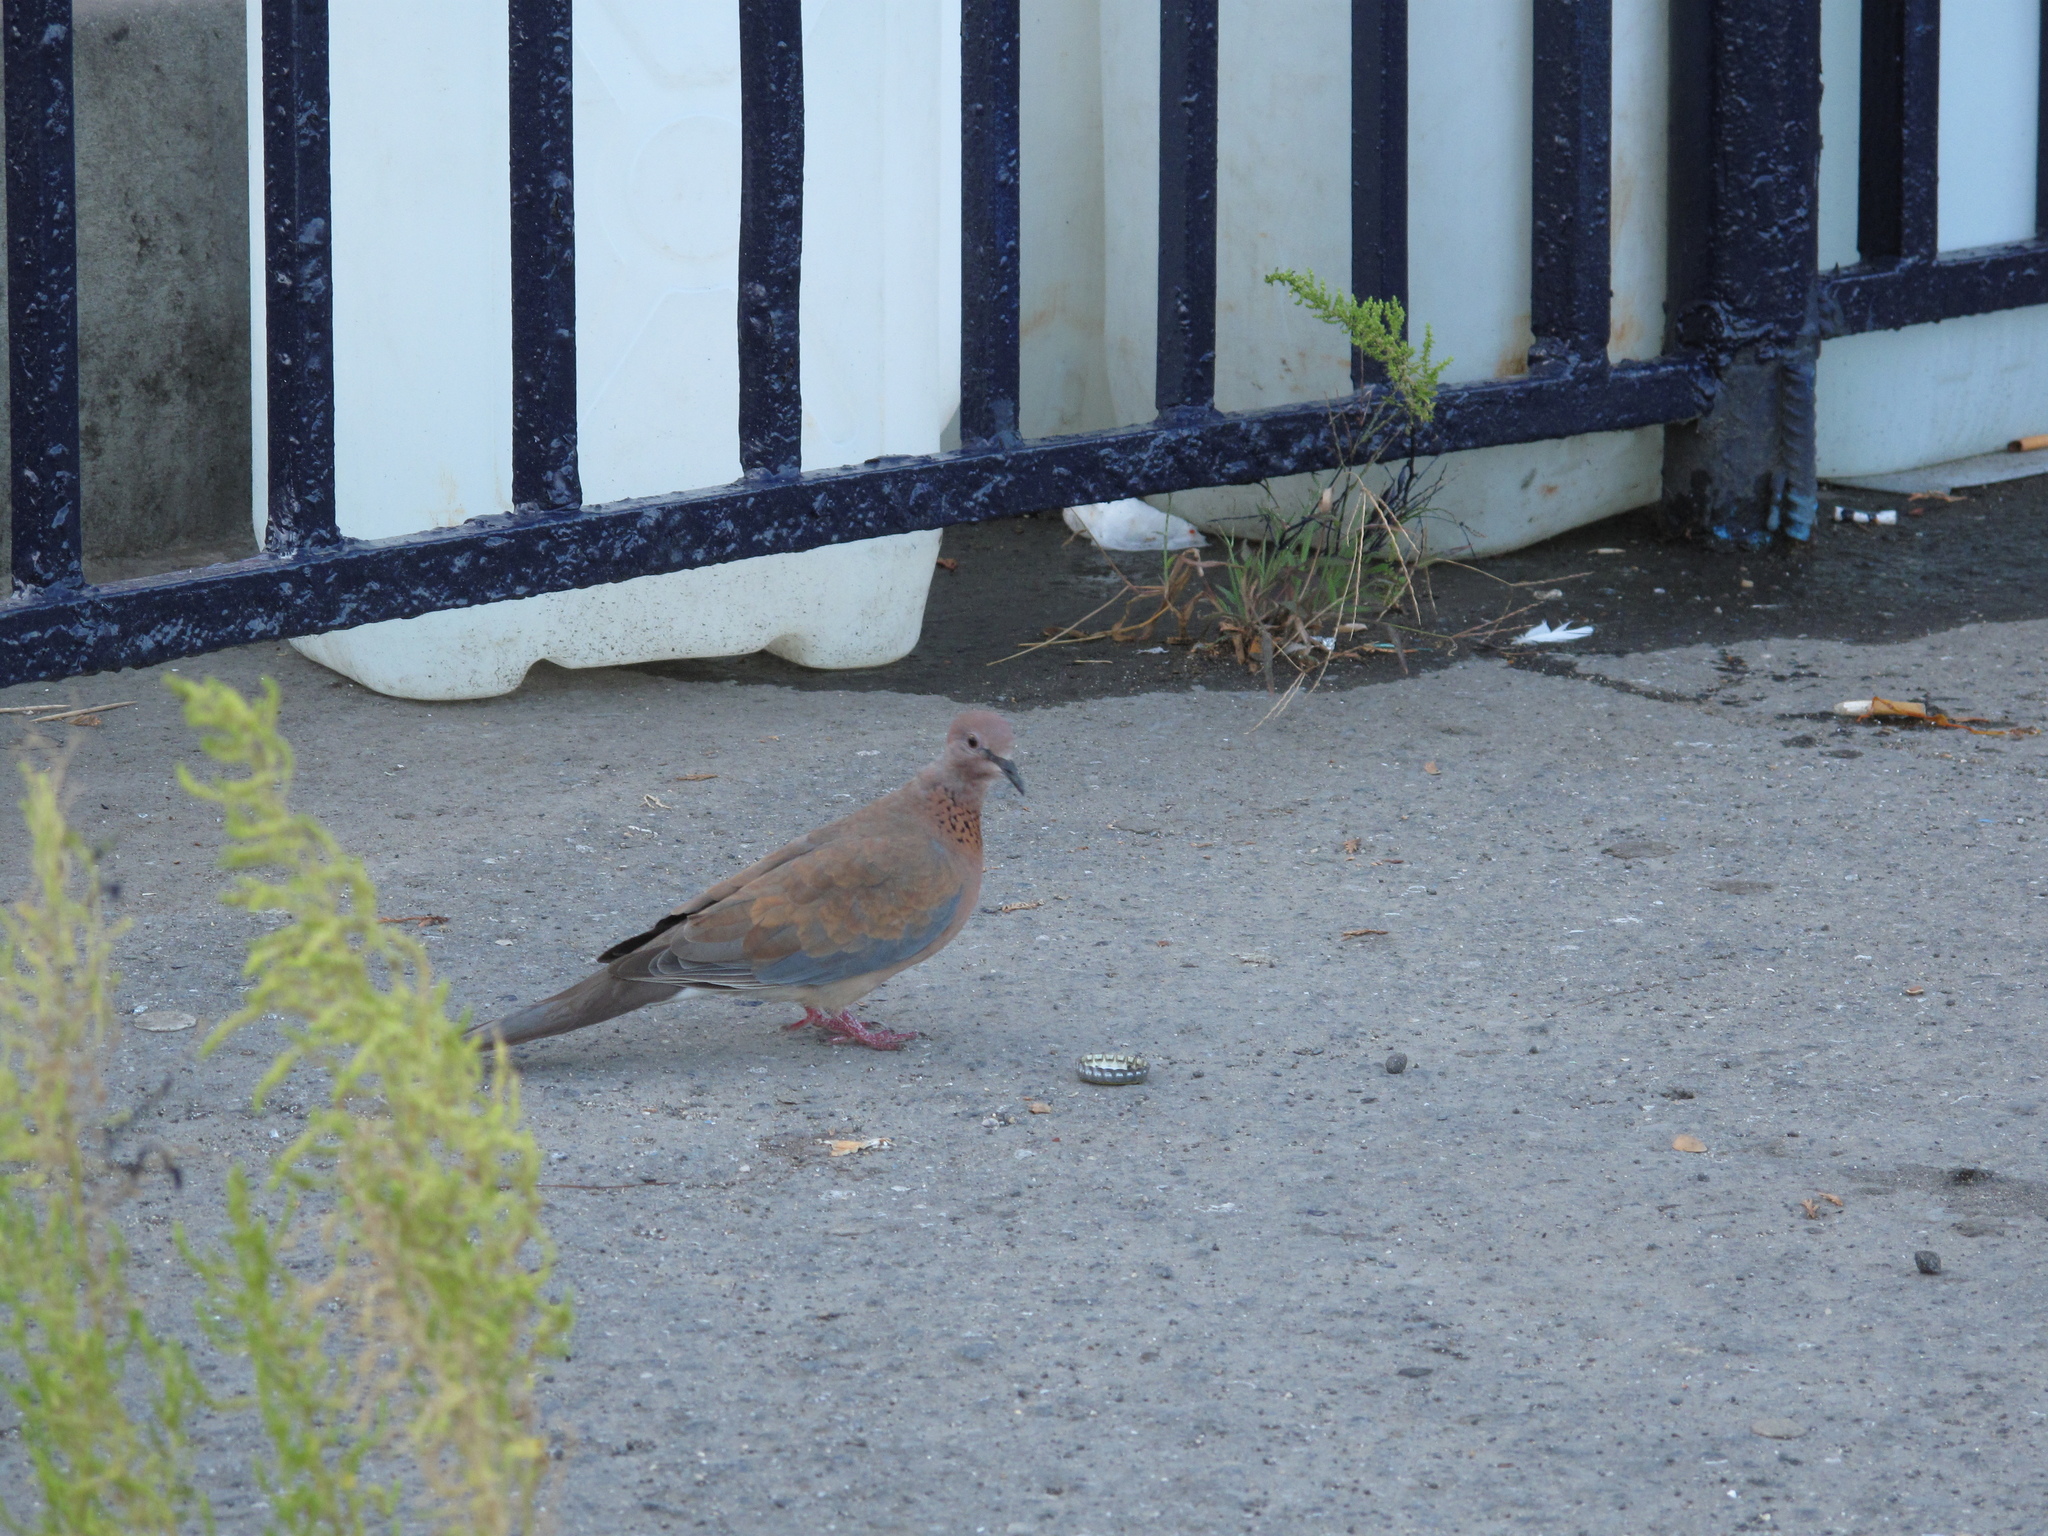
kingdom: Animalia
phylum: Chordata
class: Aves
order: Columbiformes
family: Columbidae
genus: Spilopelia
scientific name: Spilopelia senegalensis
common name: Laughing dove
